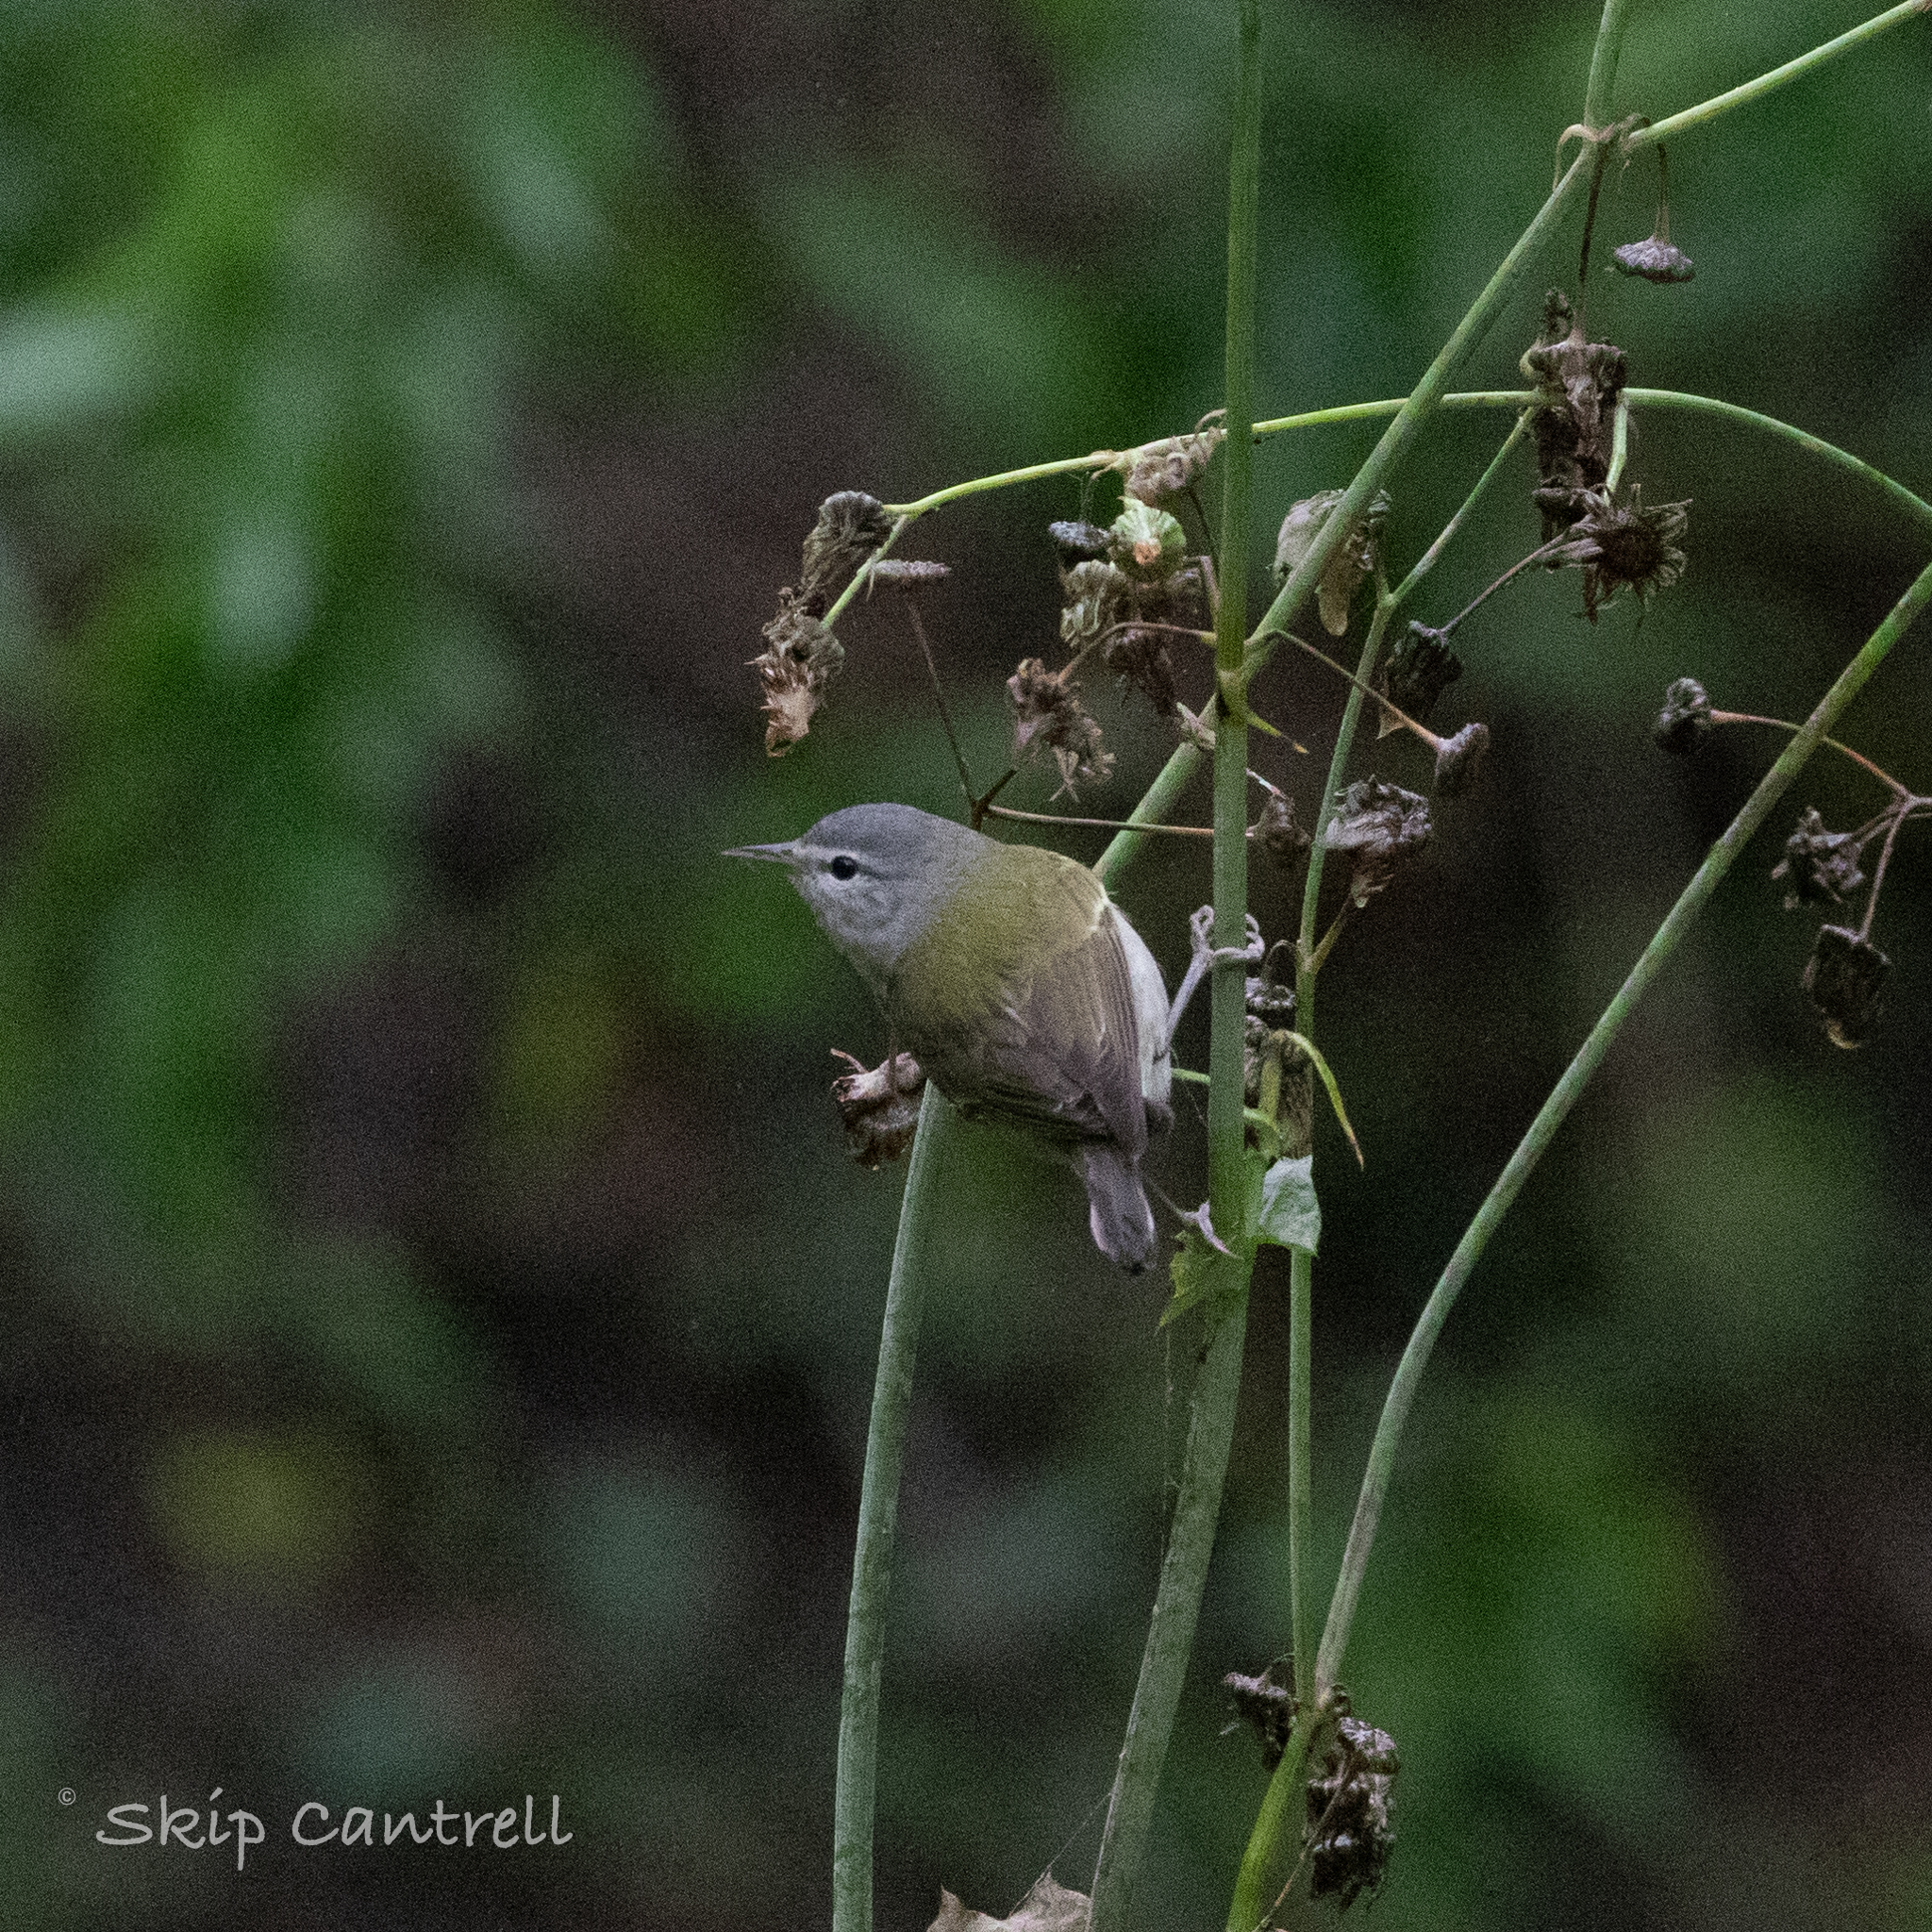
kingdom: Animalia
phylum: Chordata
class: Aves
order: Passeriformes
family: Parulidae
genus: Leiothlypis
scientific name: Leiothlypis peregrina
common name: Tennessee warbler
